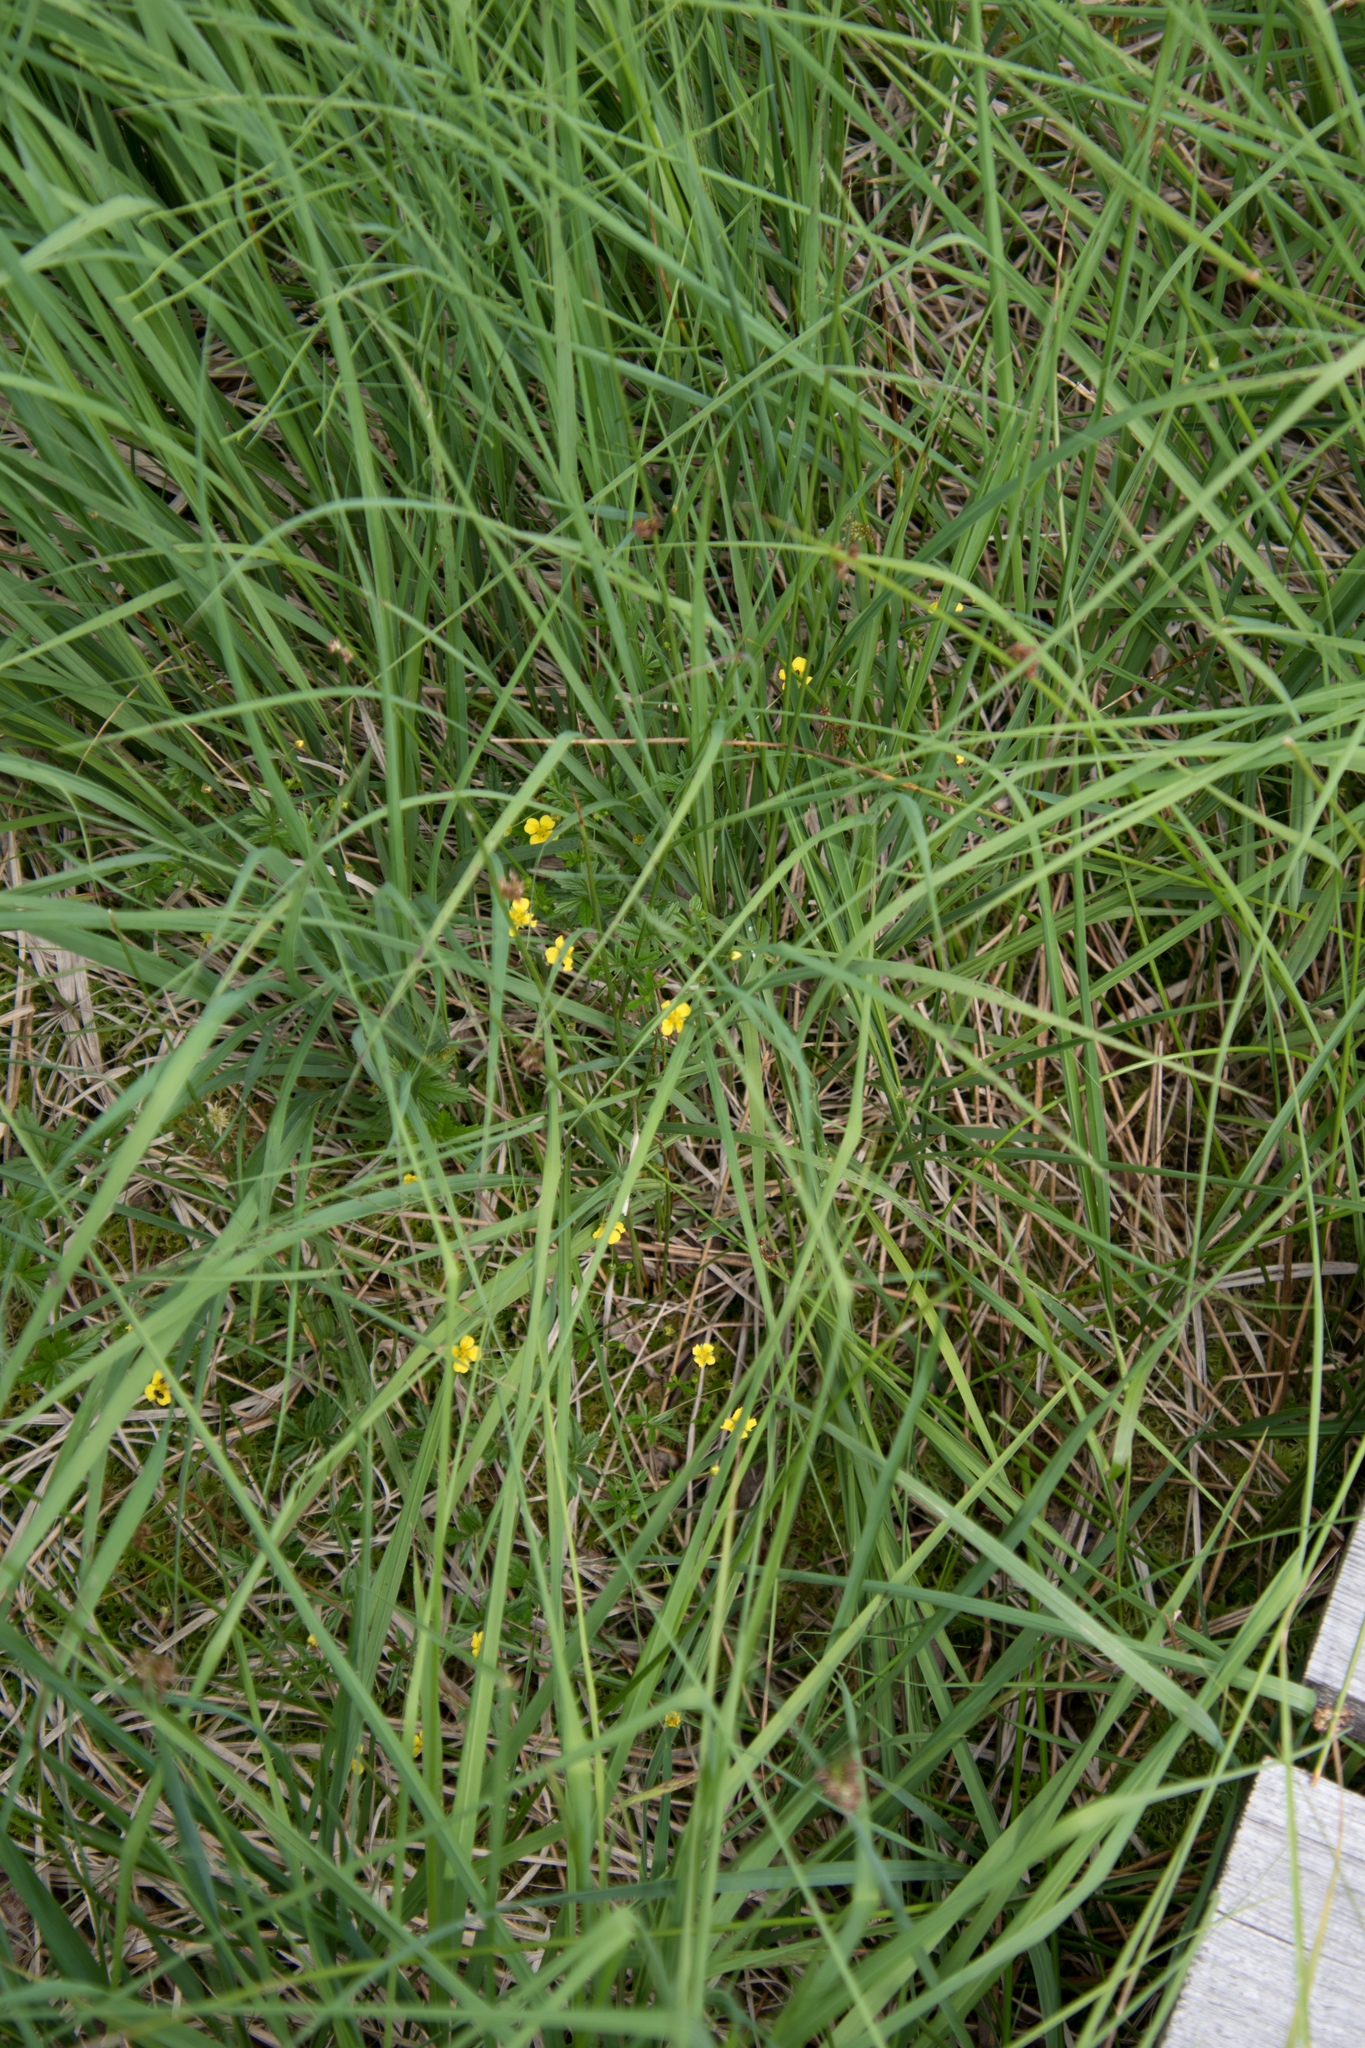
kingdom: Plantae
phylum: Tracheophyta
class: Magnoliopsida
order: Rosales
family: Rosaceae
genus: Potentilla
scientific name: Potentilla erecta
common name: Tormentil
